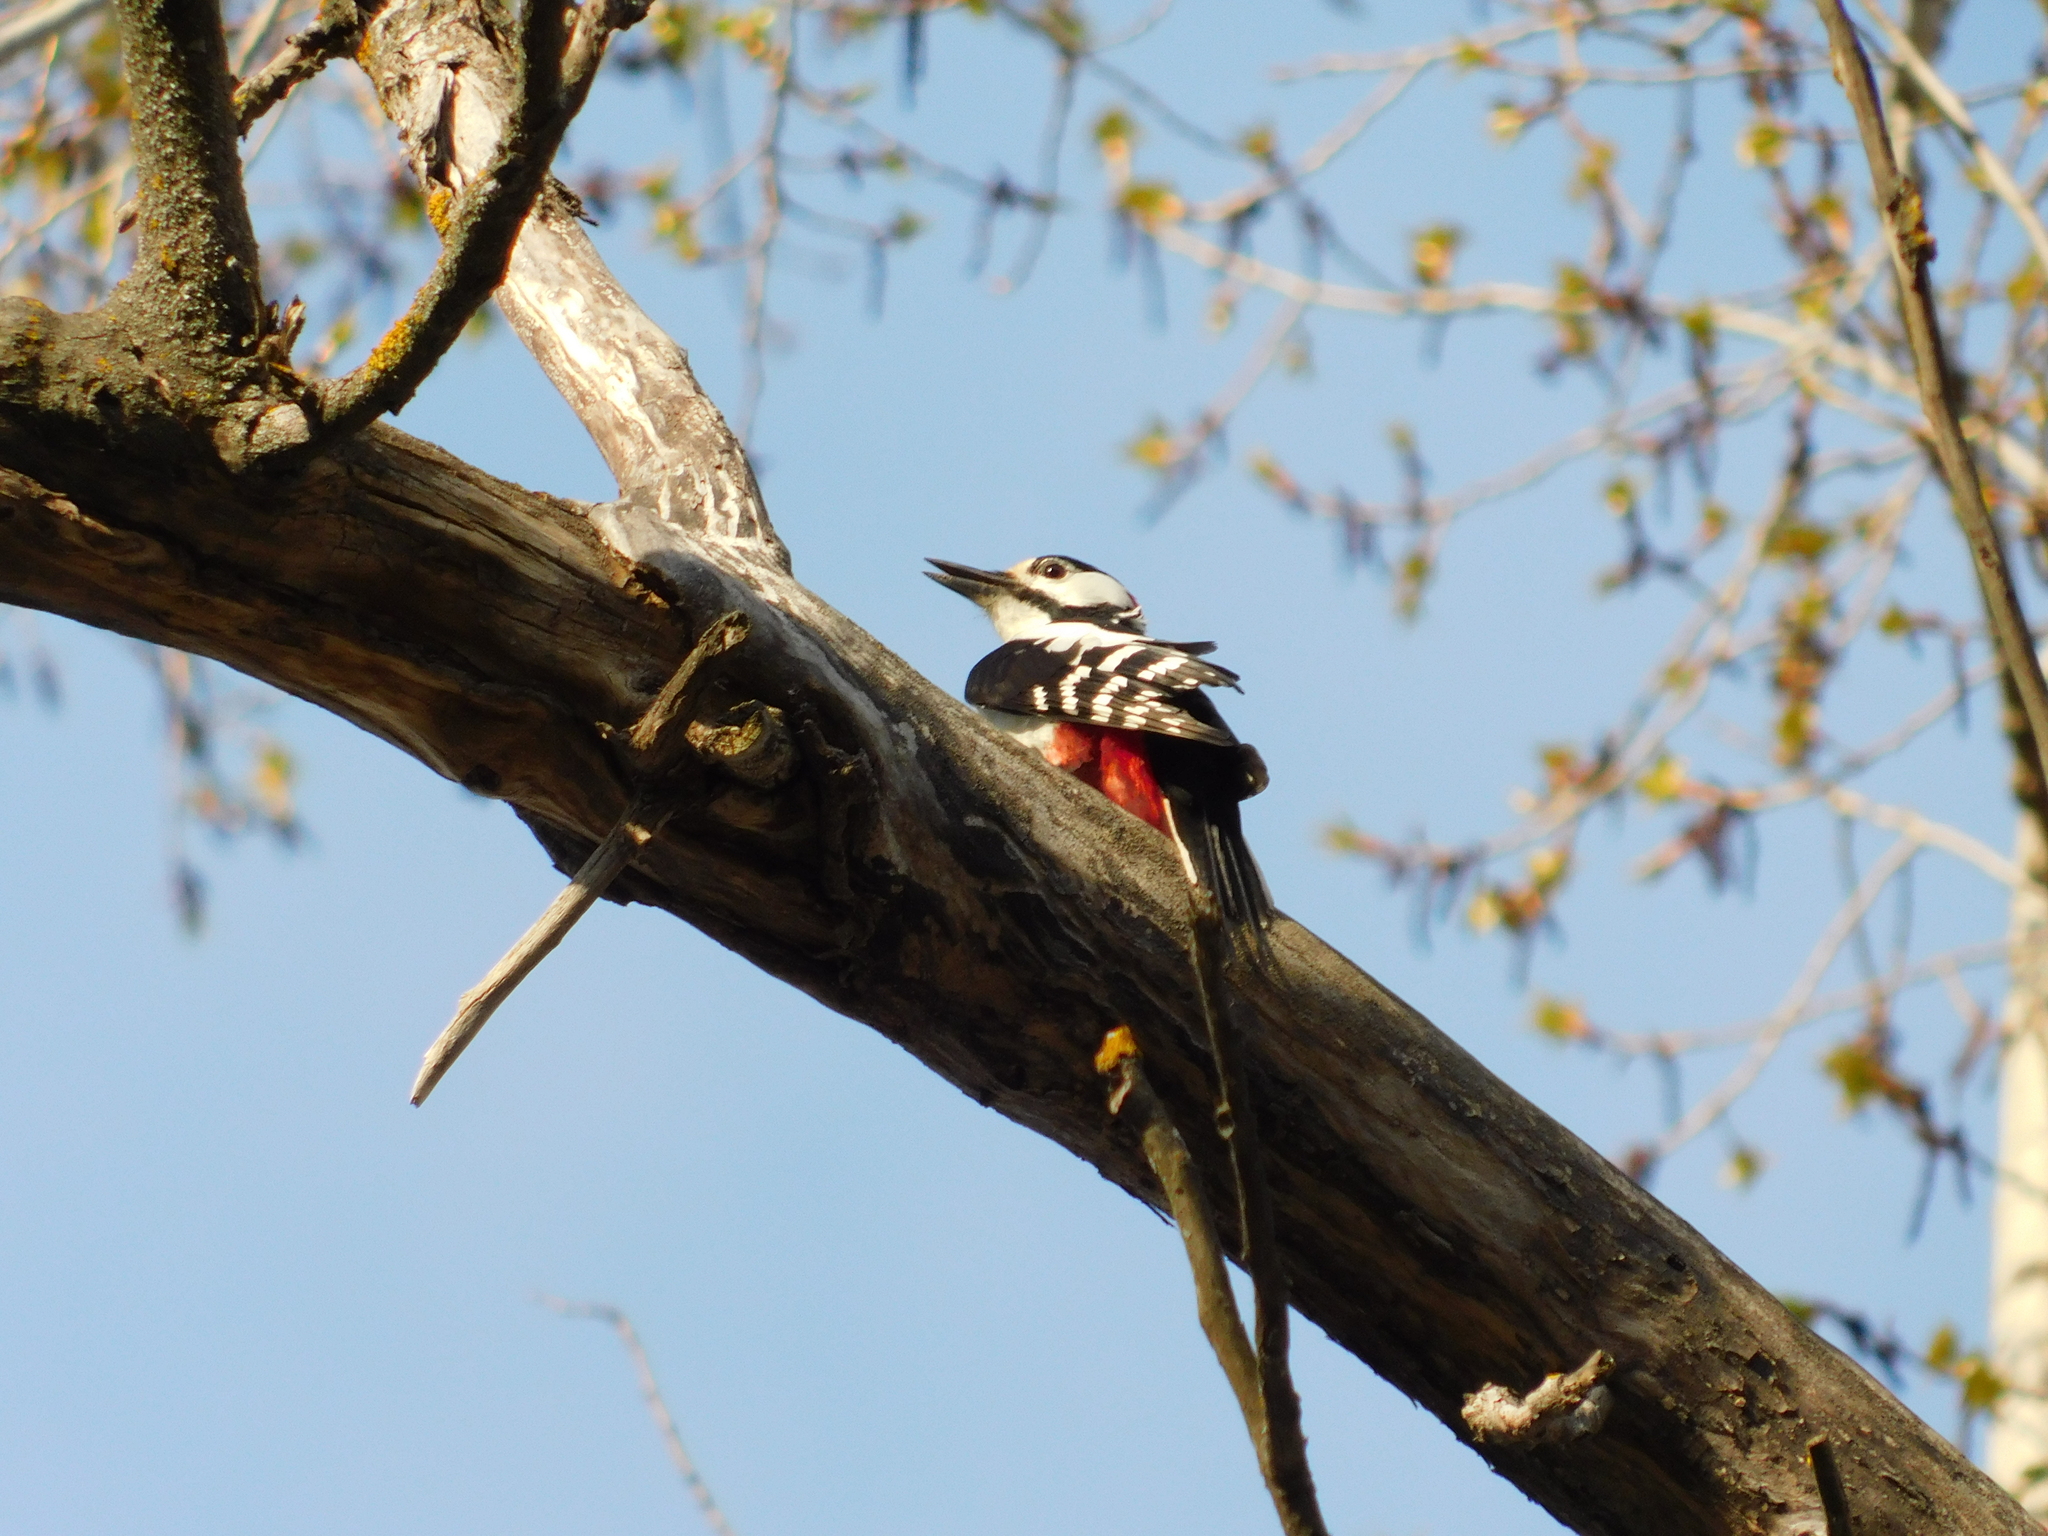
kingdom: Animalia
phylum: Chordata
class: Aves
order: Piciformes
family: Picidae
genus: Dendrocopos
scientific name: Dendrocopos major
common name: Great spotted woodpecker
